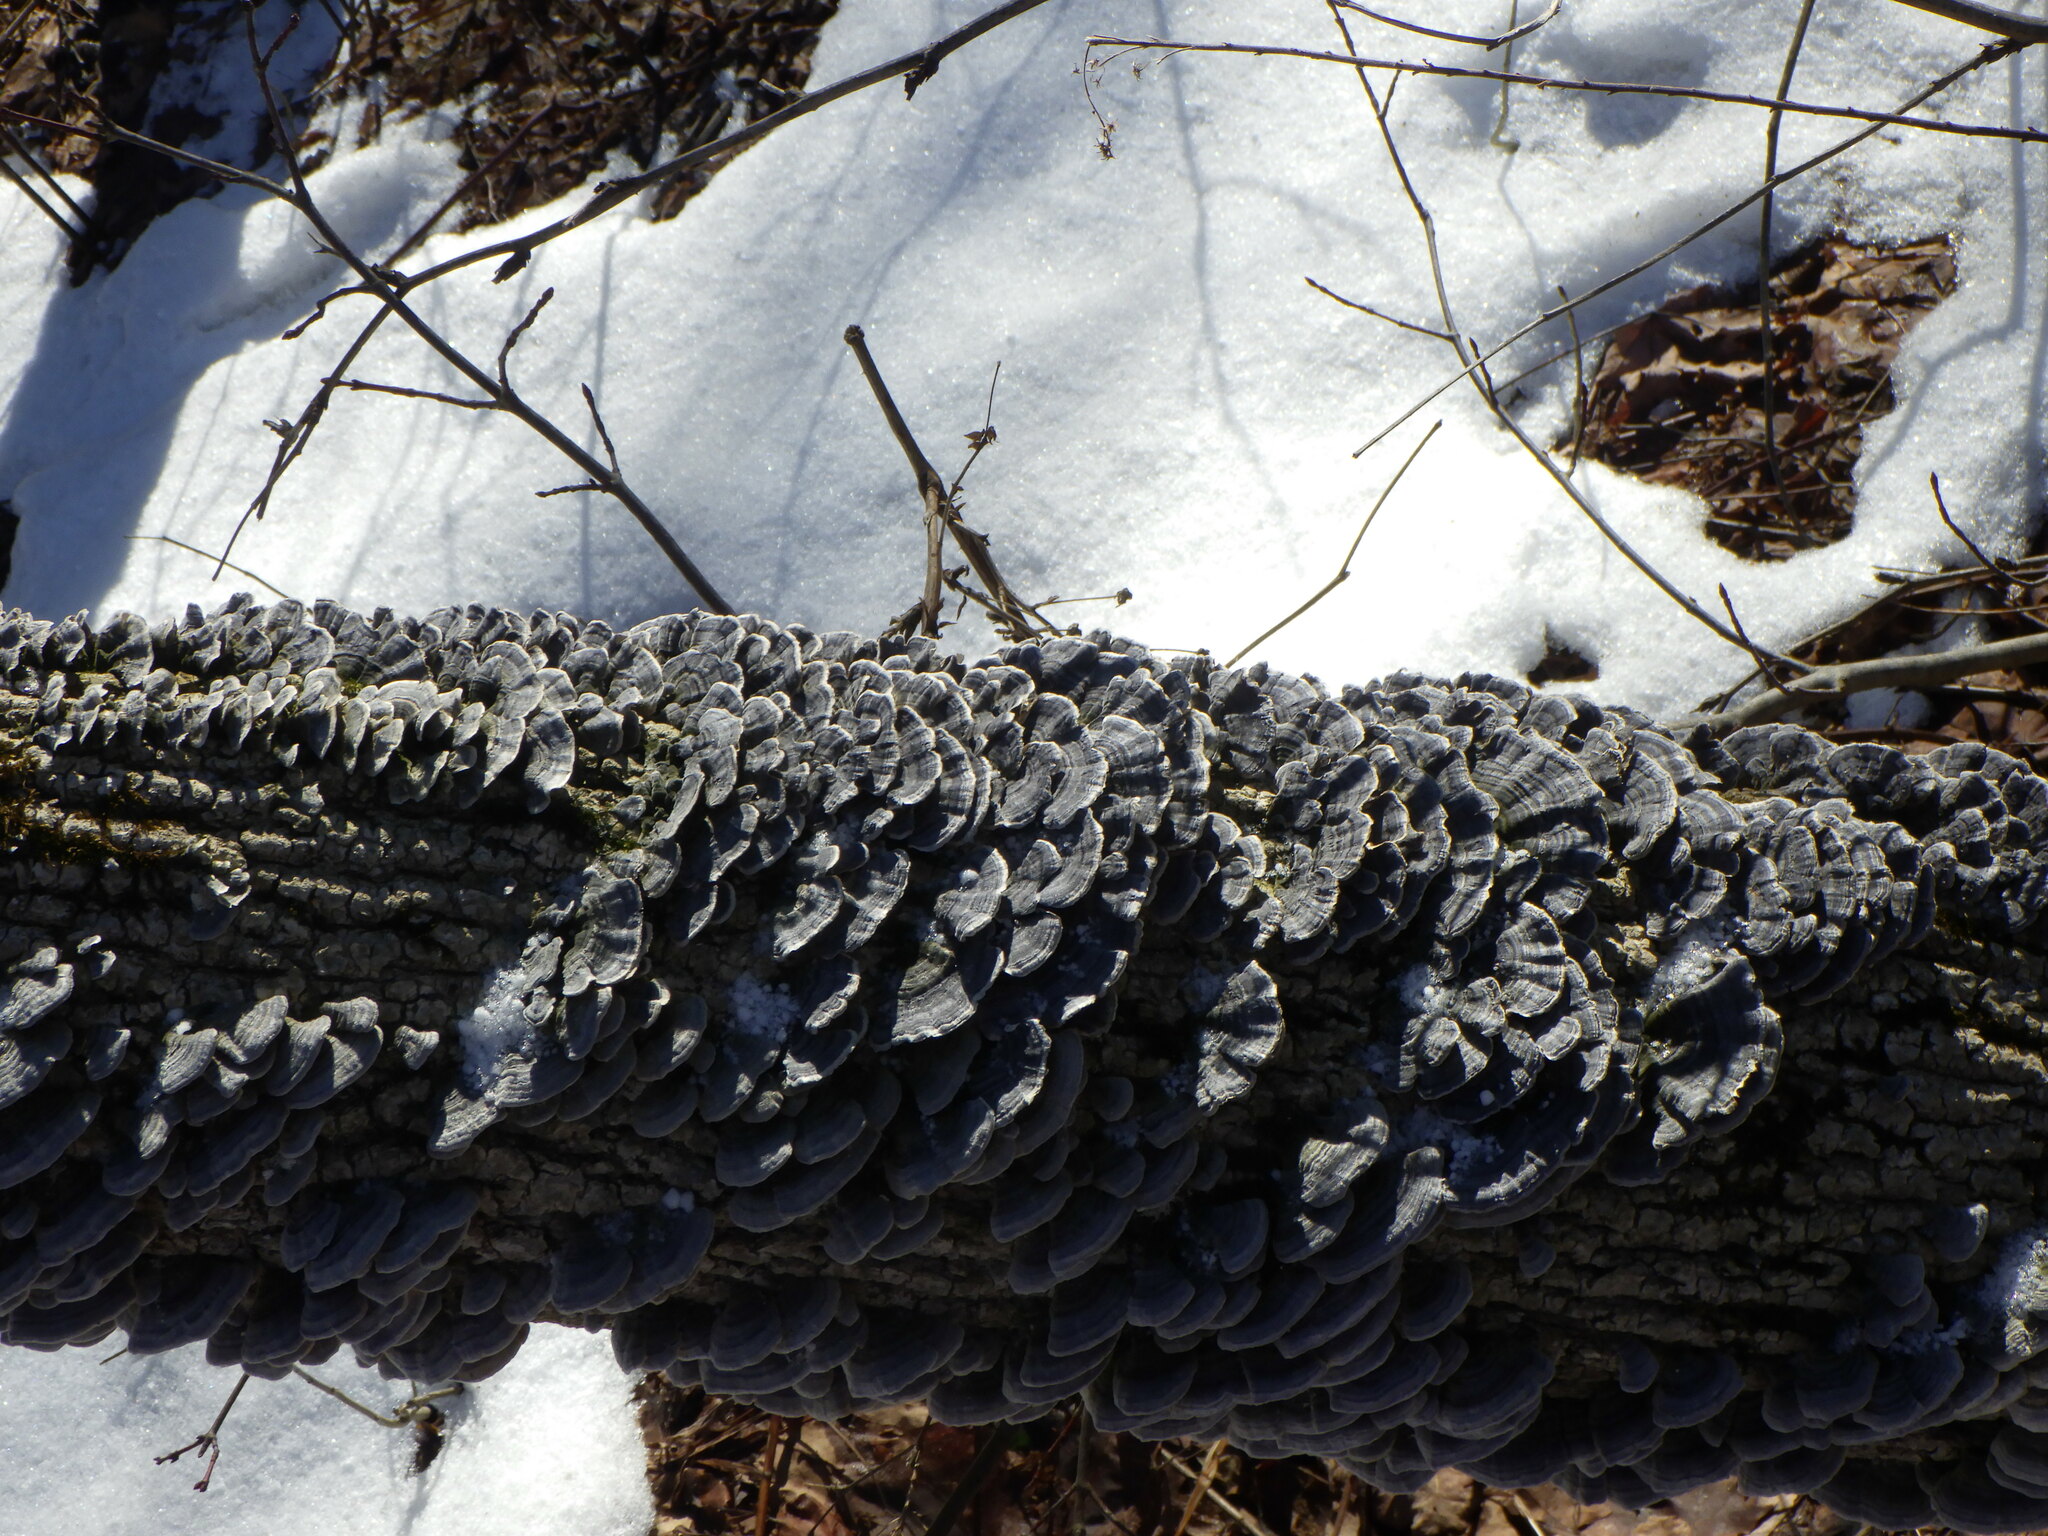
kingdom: Fungi
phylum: Basidiomycota
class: Agaricomycetes
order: Polyporales
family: Polyporaceae
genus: Trametes
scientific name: Trametes versicolor
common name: Turkeytail
